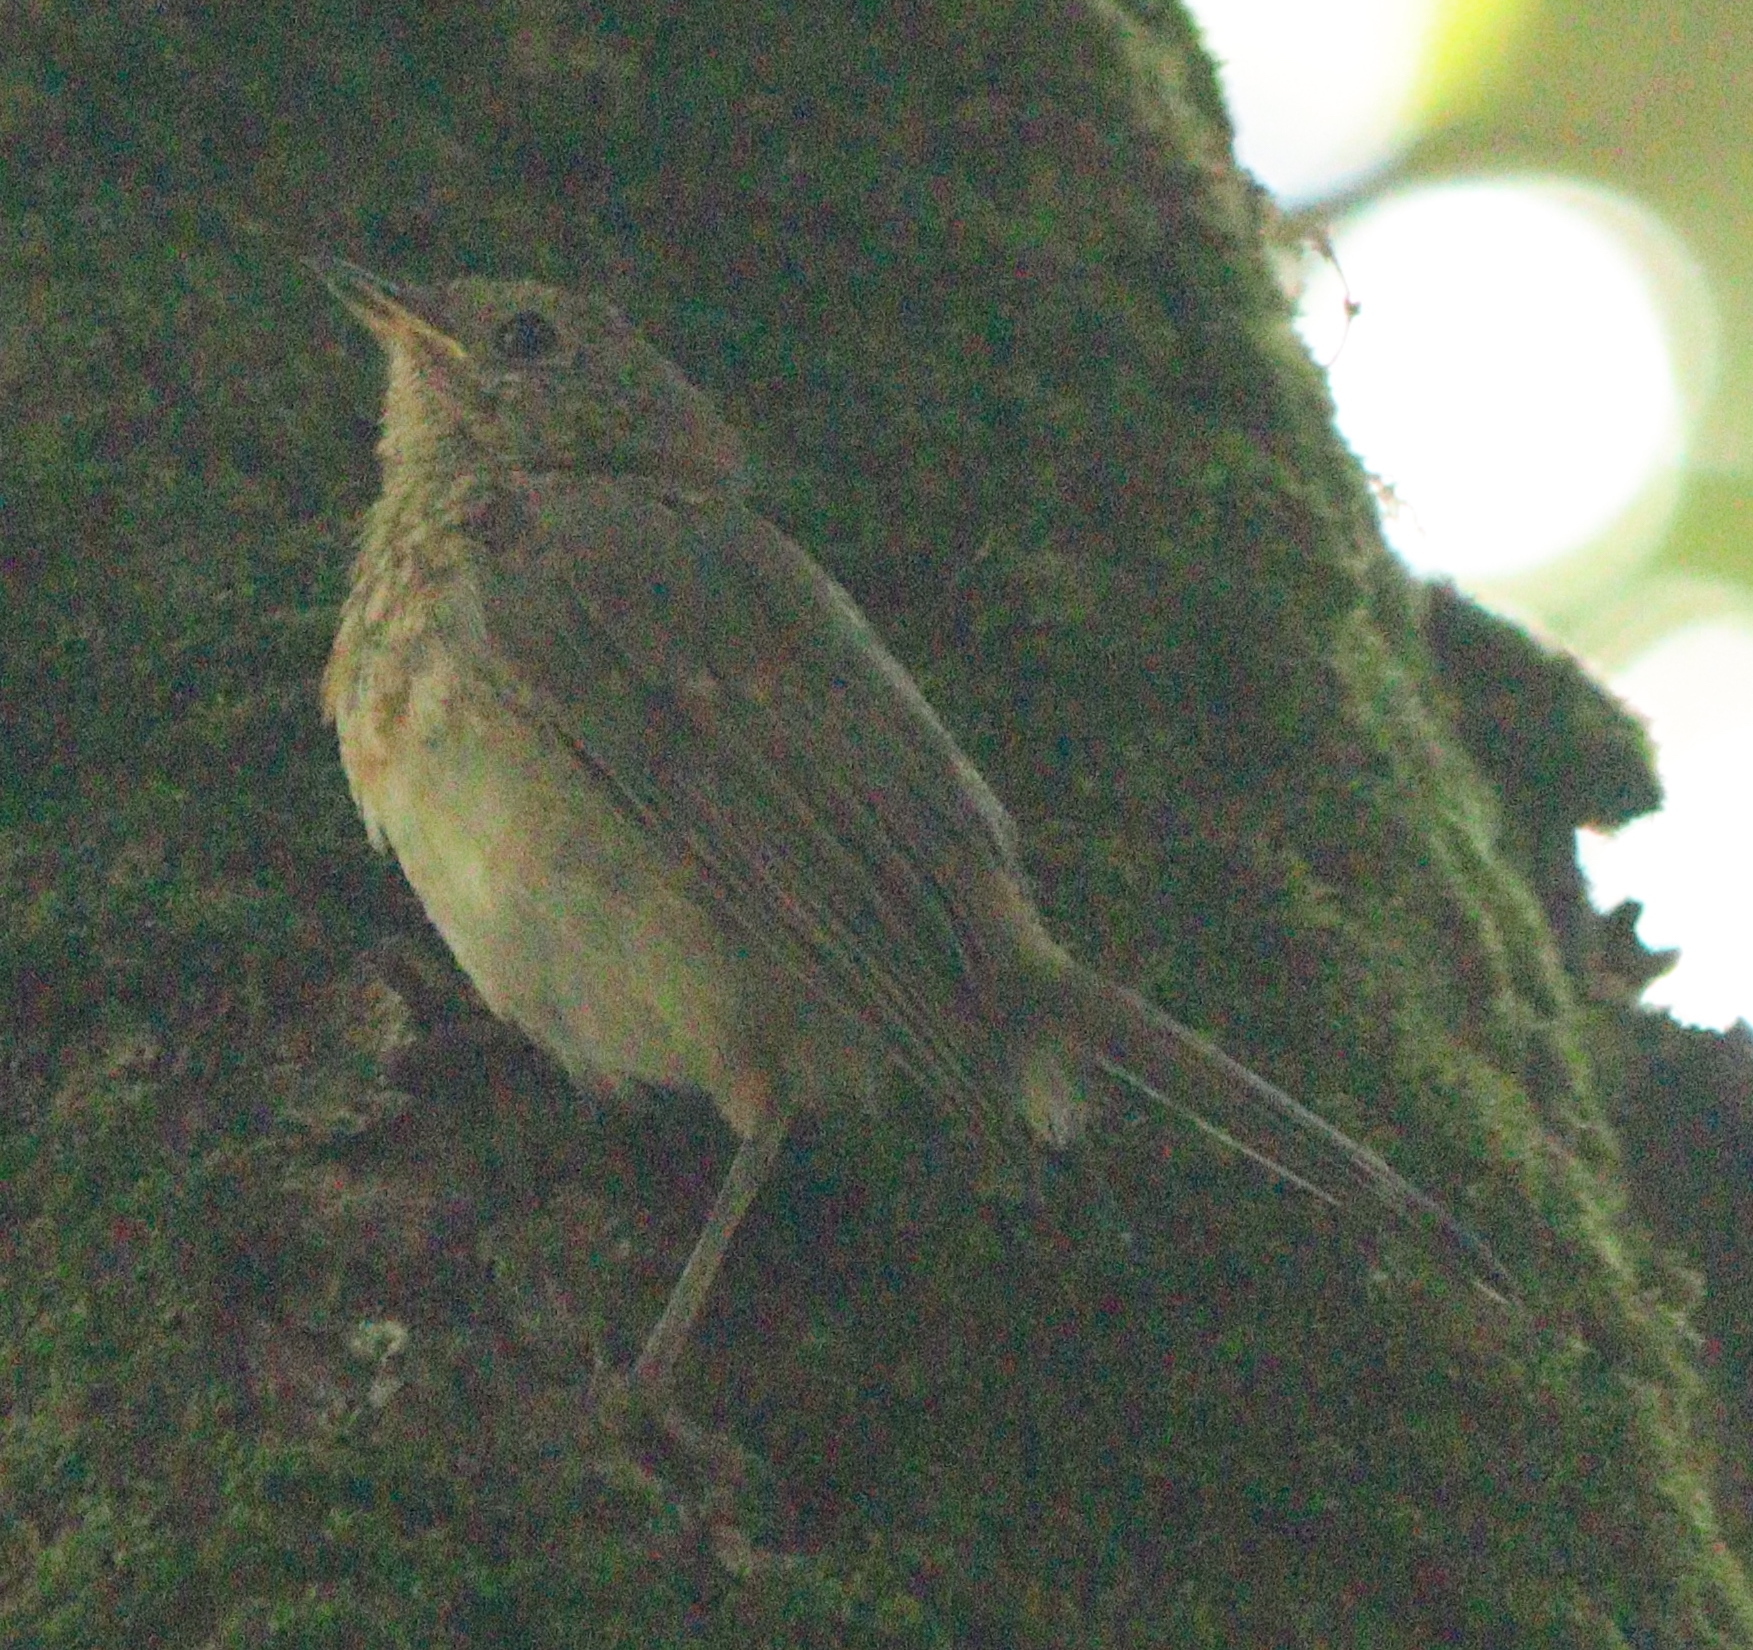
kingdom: Animalia
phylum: Chordata
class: Aves
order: Passeriformes
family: Muscicapidae
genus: Erithacus
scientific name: Erithacus rubecula
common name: European robin
